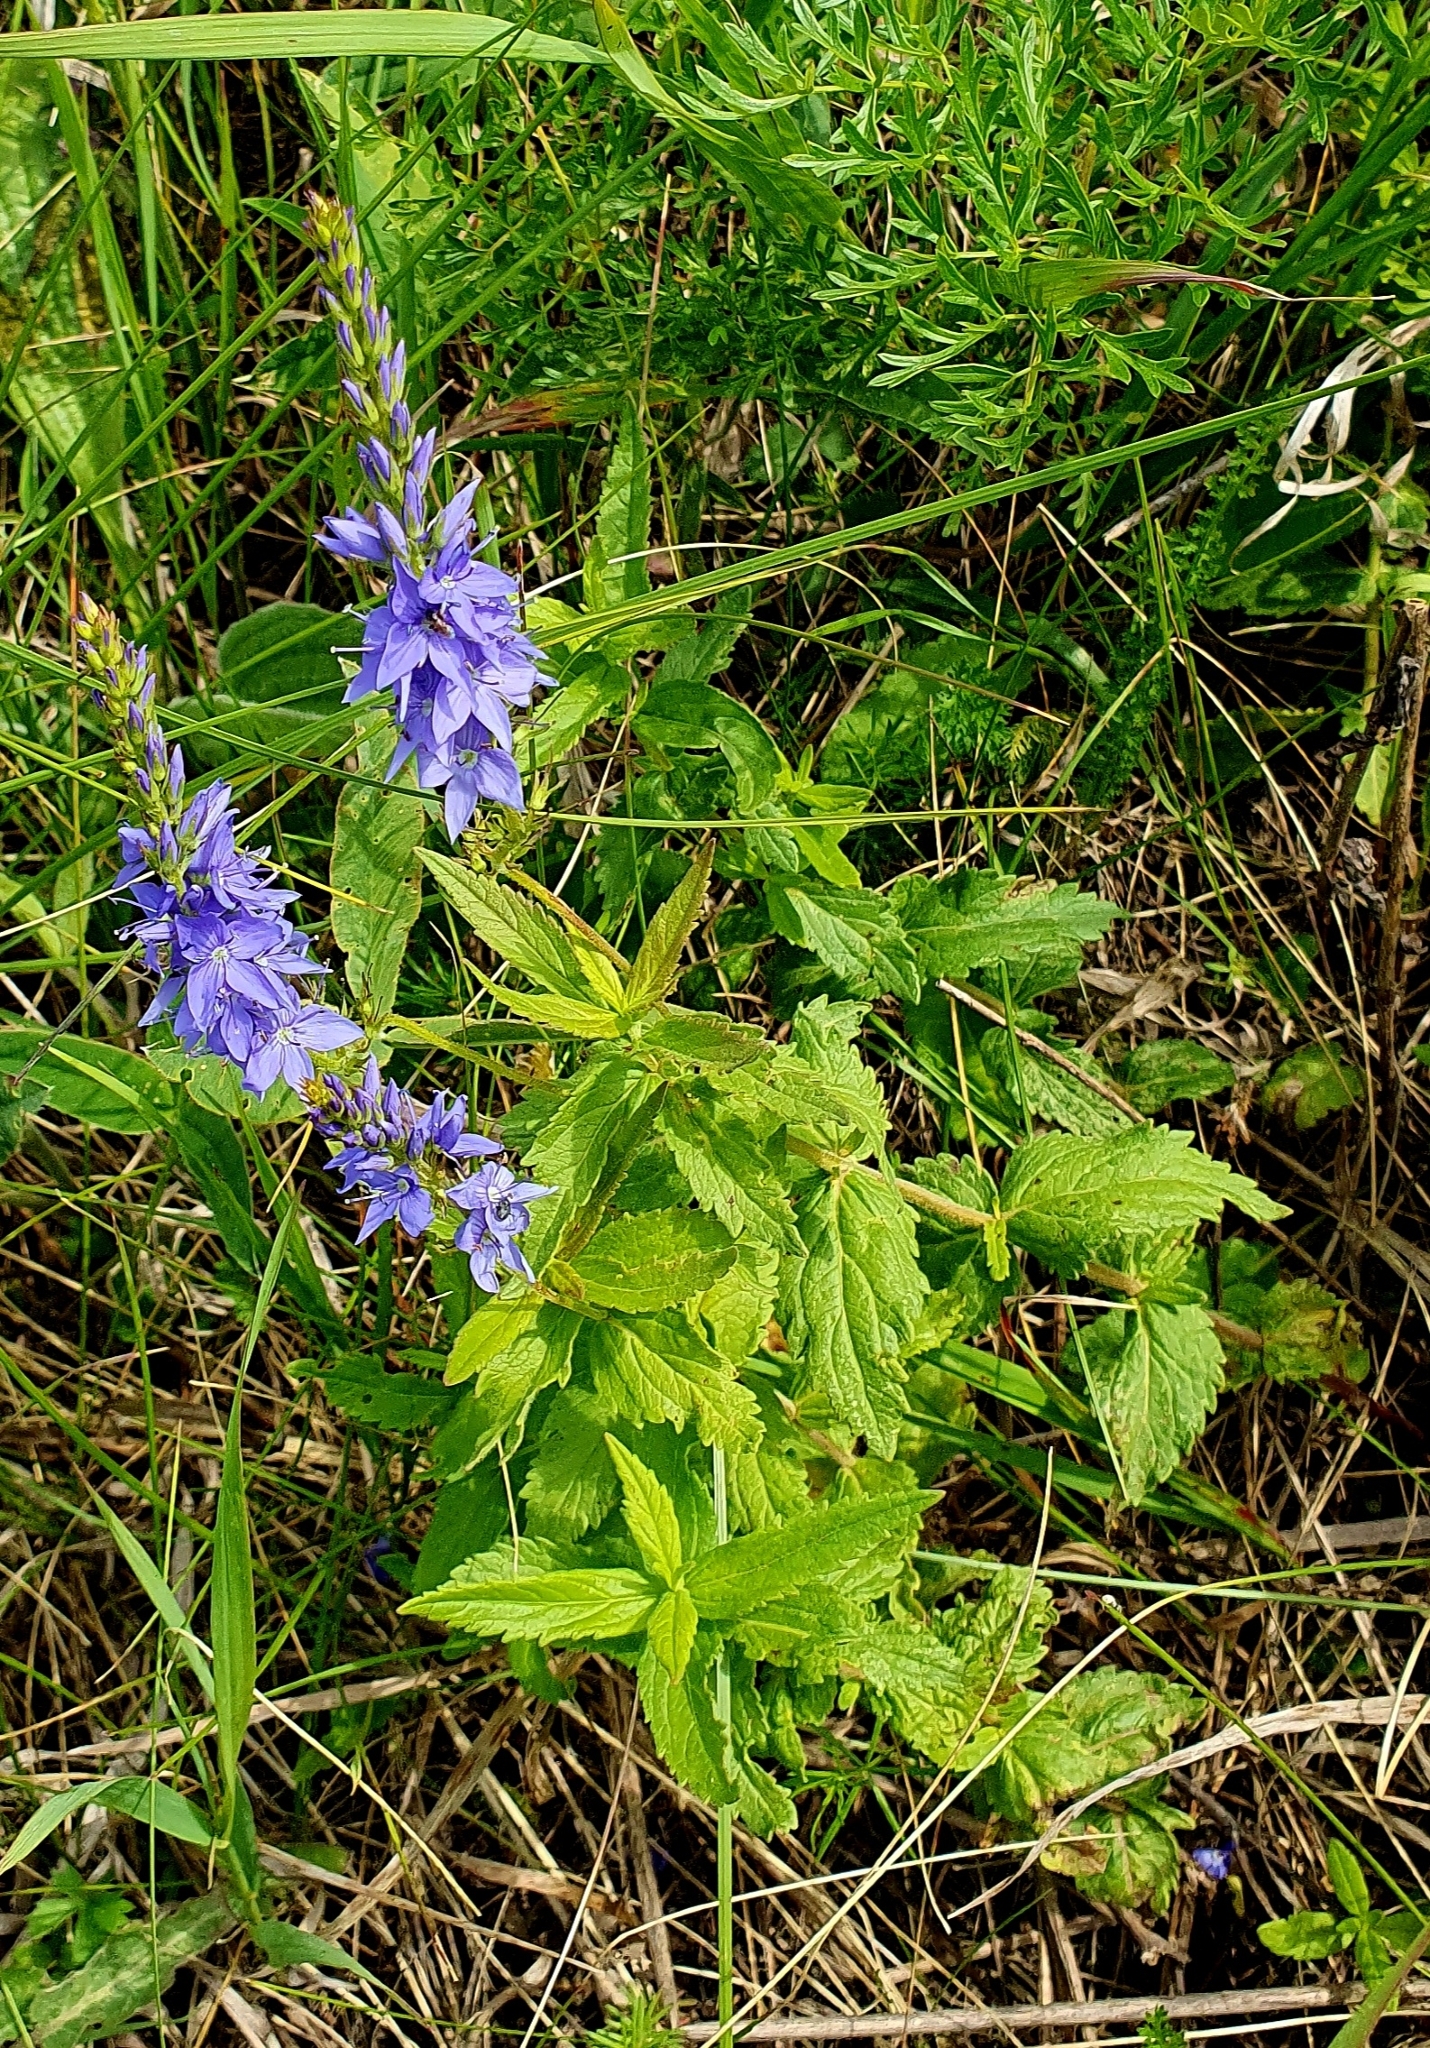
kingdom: Plantae
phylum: Tracheophyta
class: Magnoliopsida
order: Lamiales
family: Plantaginaceae
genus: Veronica
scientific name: Veronica teucrium
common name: Large speedwell
